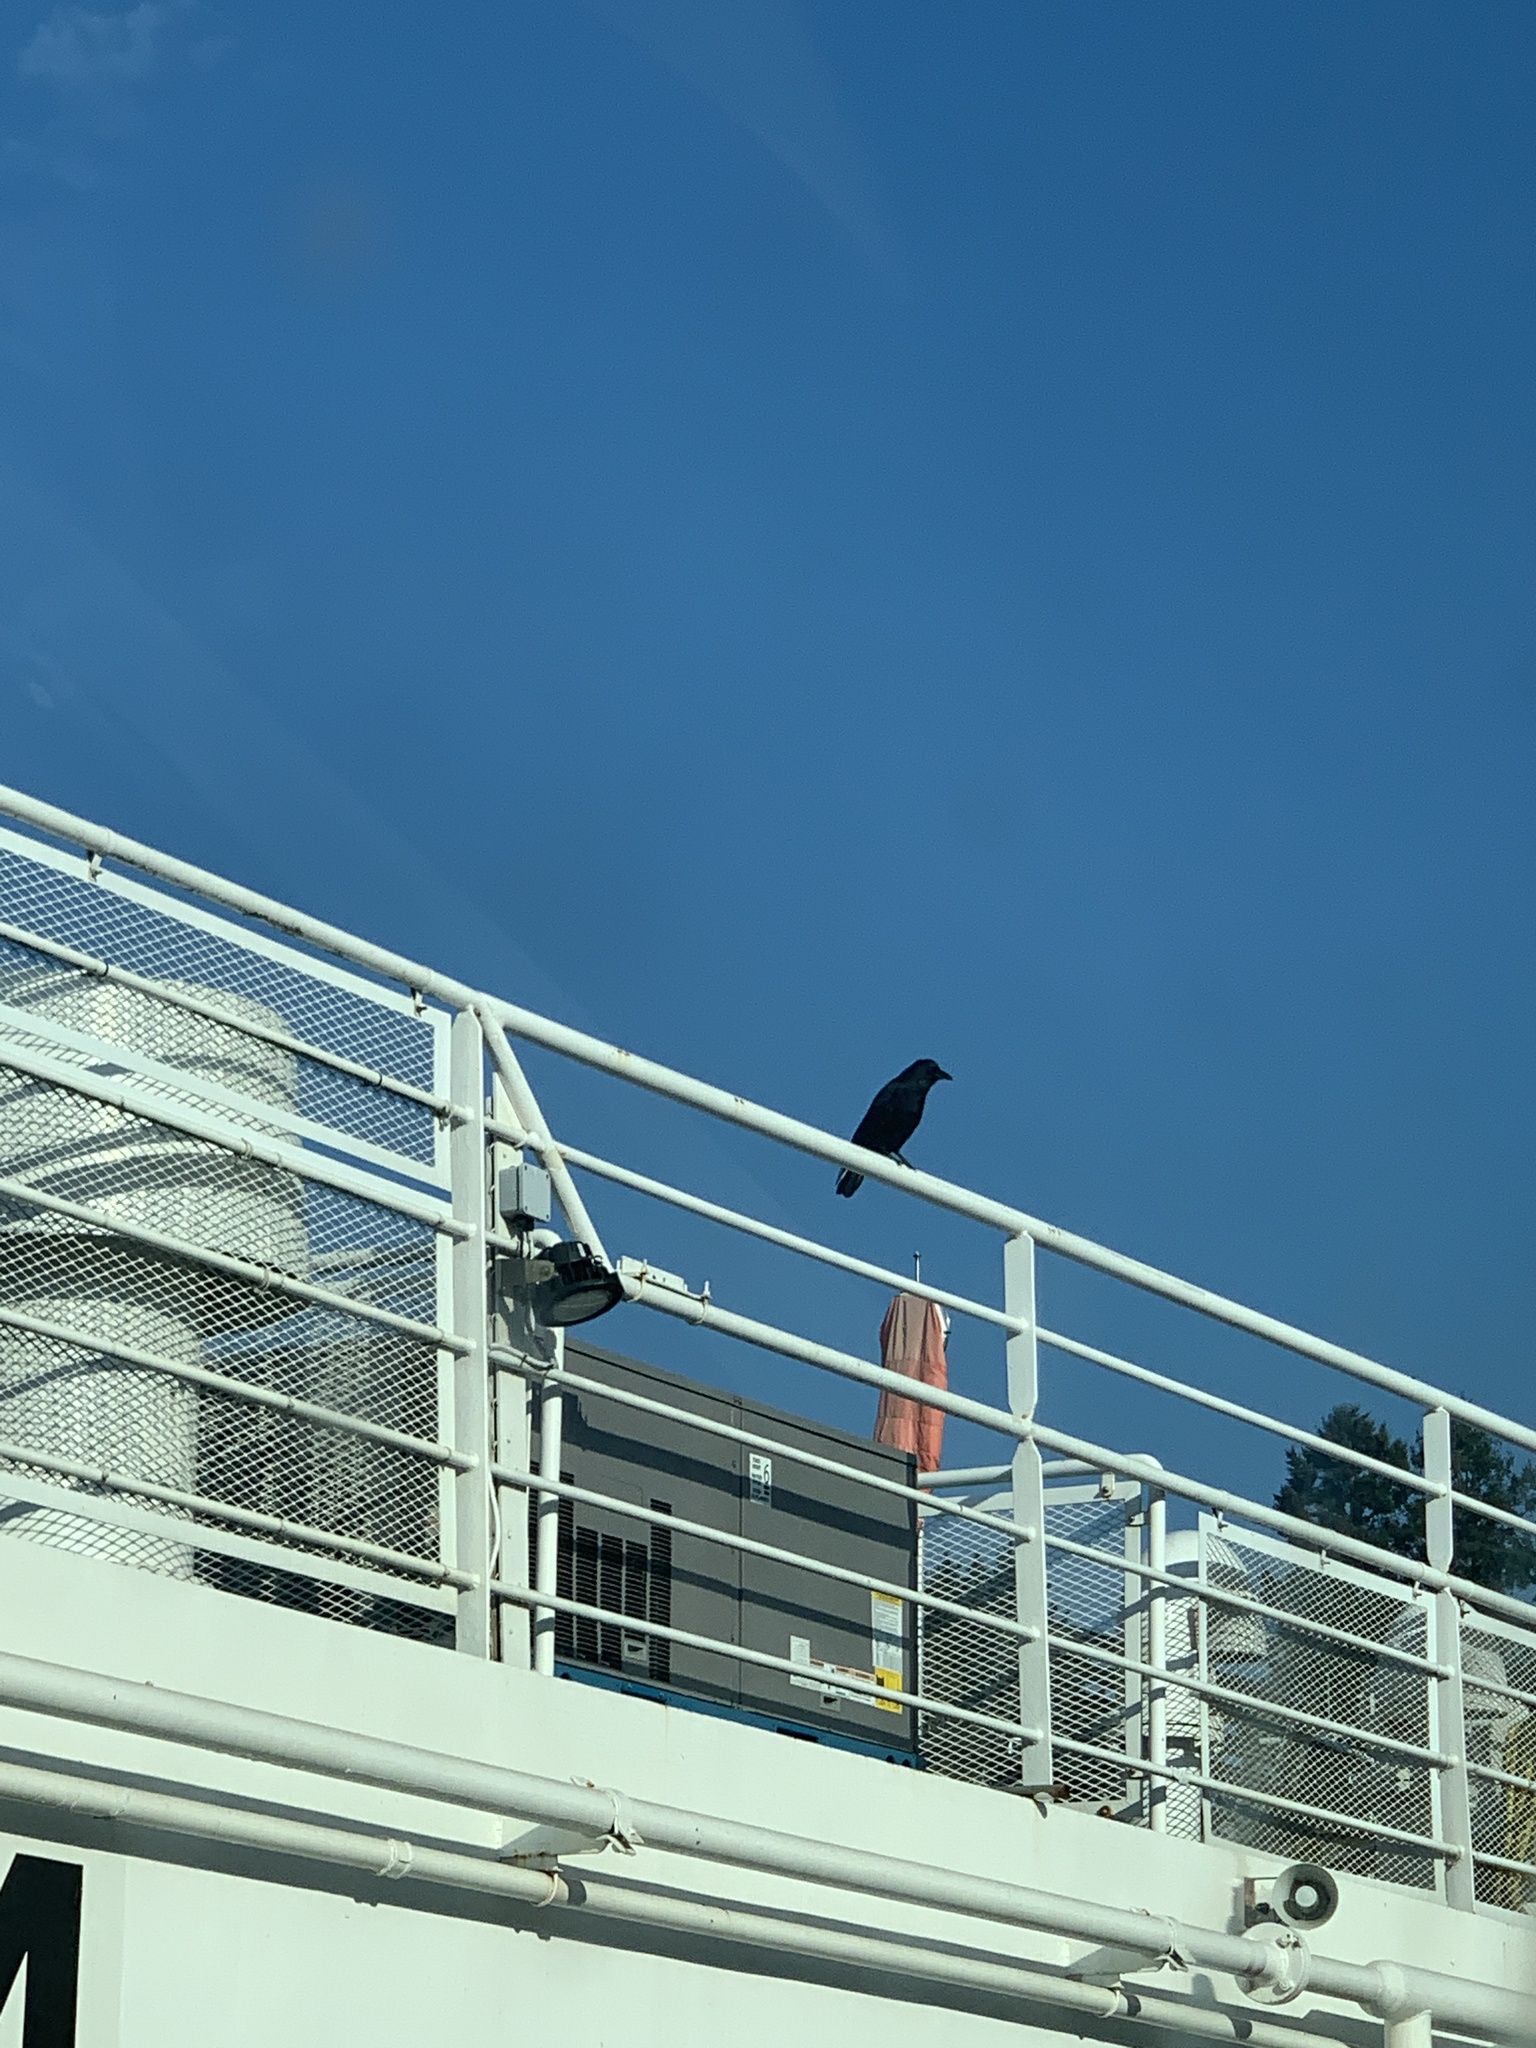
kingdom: Animalia
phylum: Chordata
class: Aves
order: Passeriformes
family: Corvidae
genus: Corvus
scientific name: Corvus brachyrhynchos
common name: American crow
